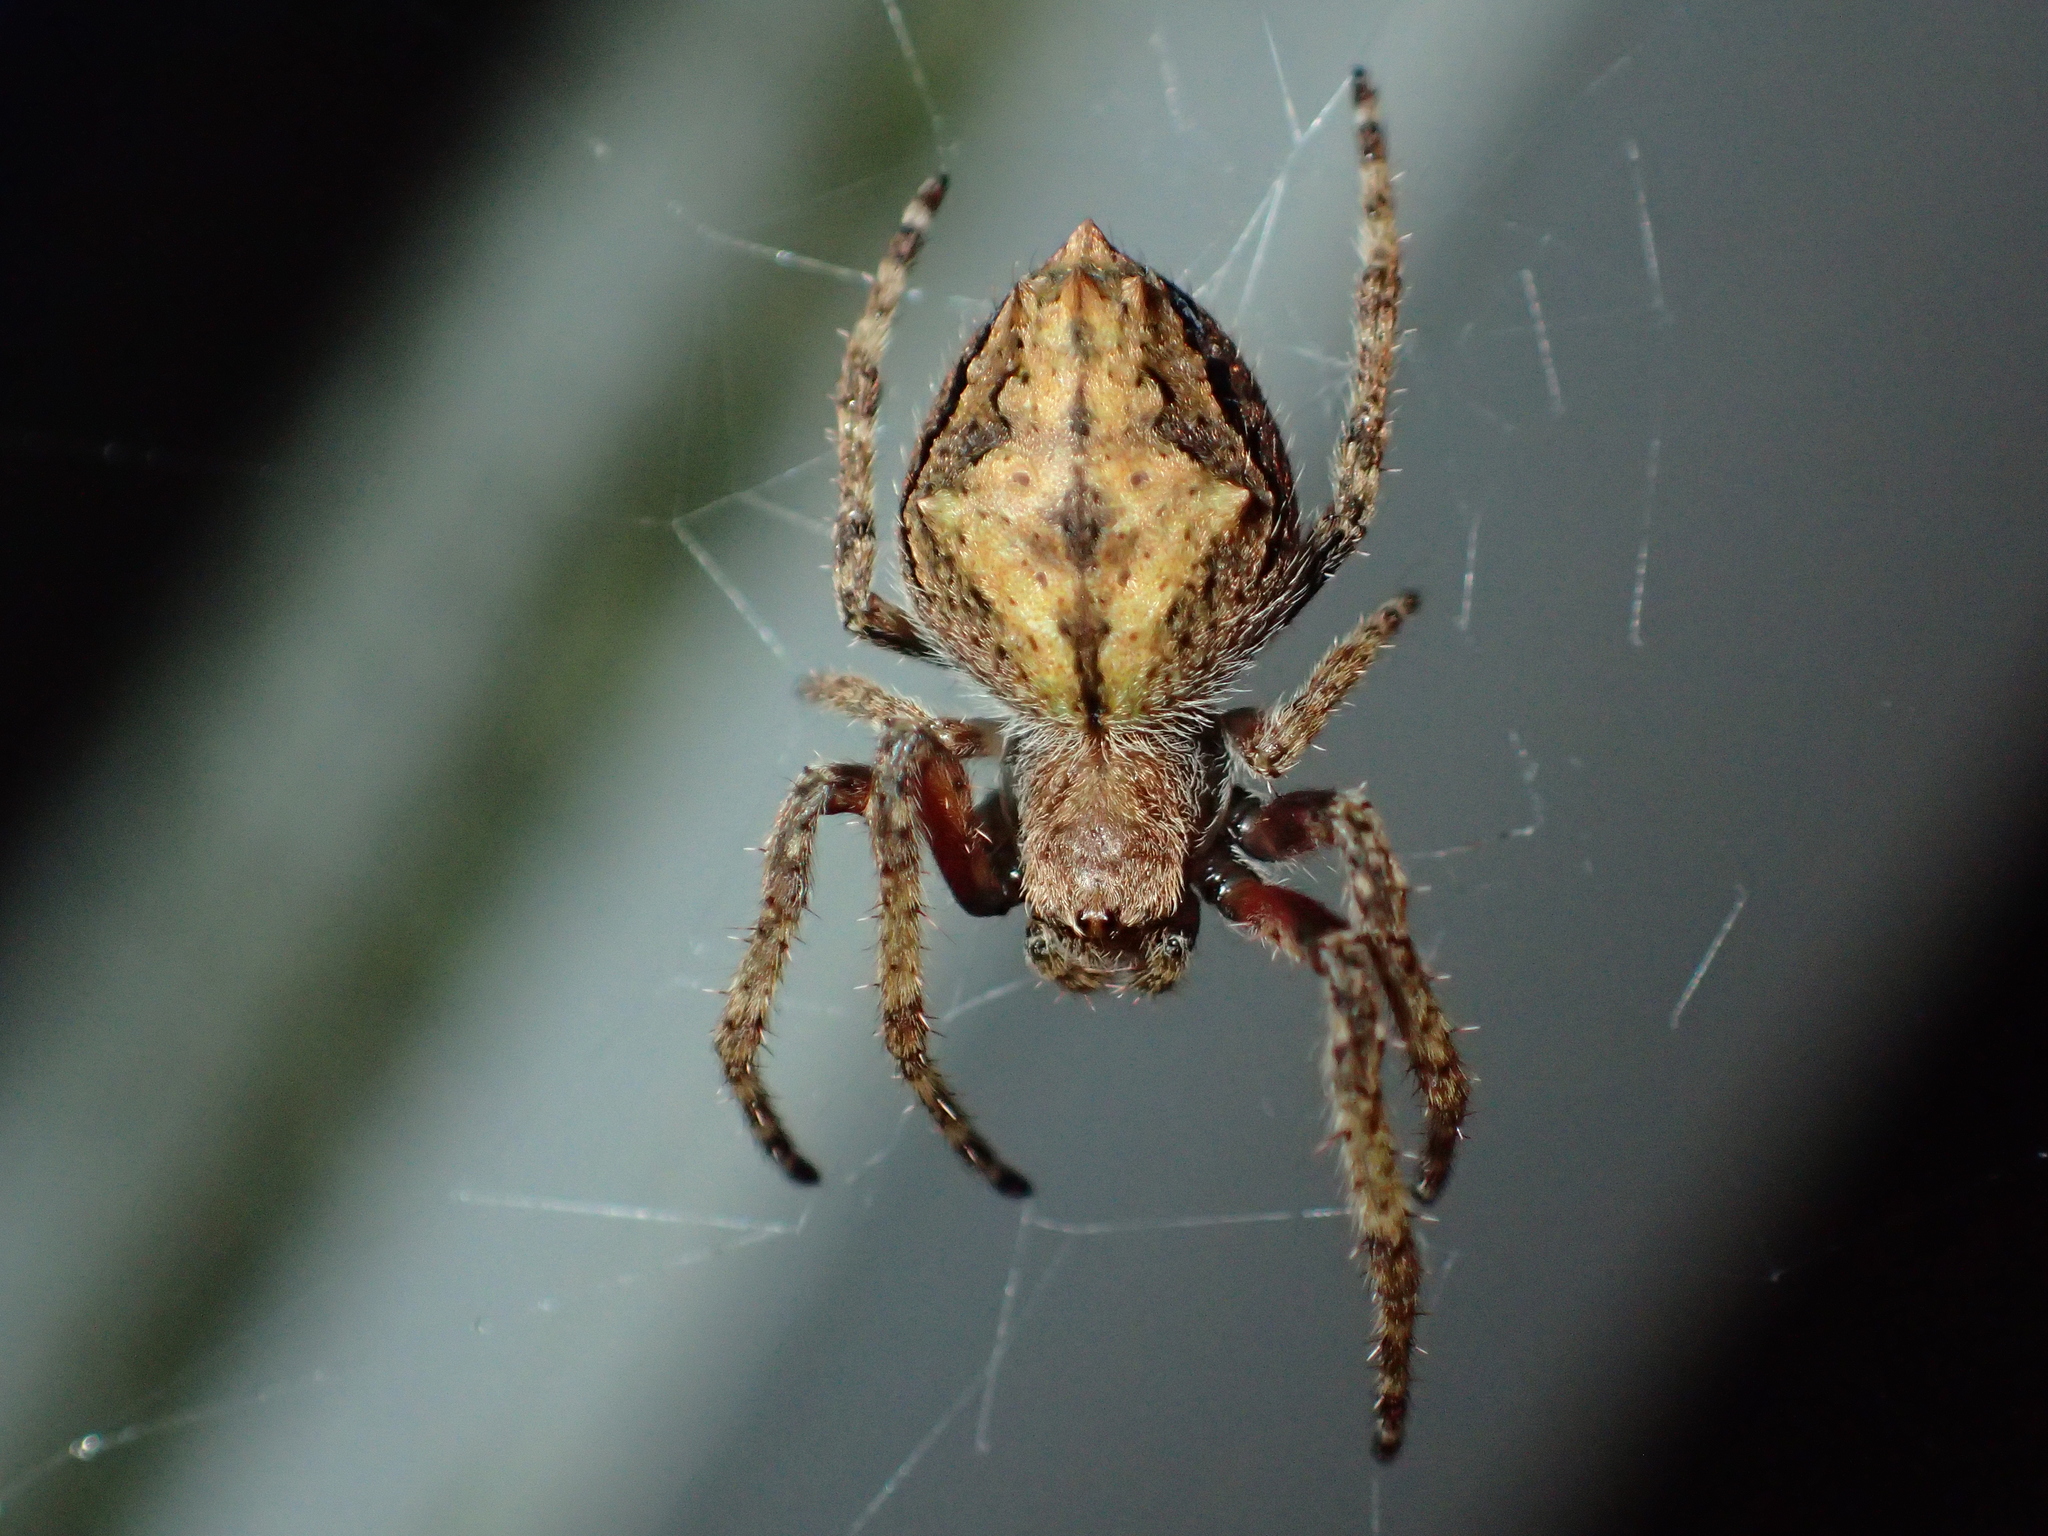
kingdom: Animalia
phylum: Arthropoda
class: Arachnida
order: Araneae
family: Araneidae
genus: Eriophora
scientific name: Eriophora pustulosa
